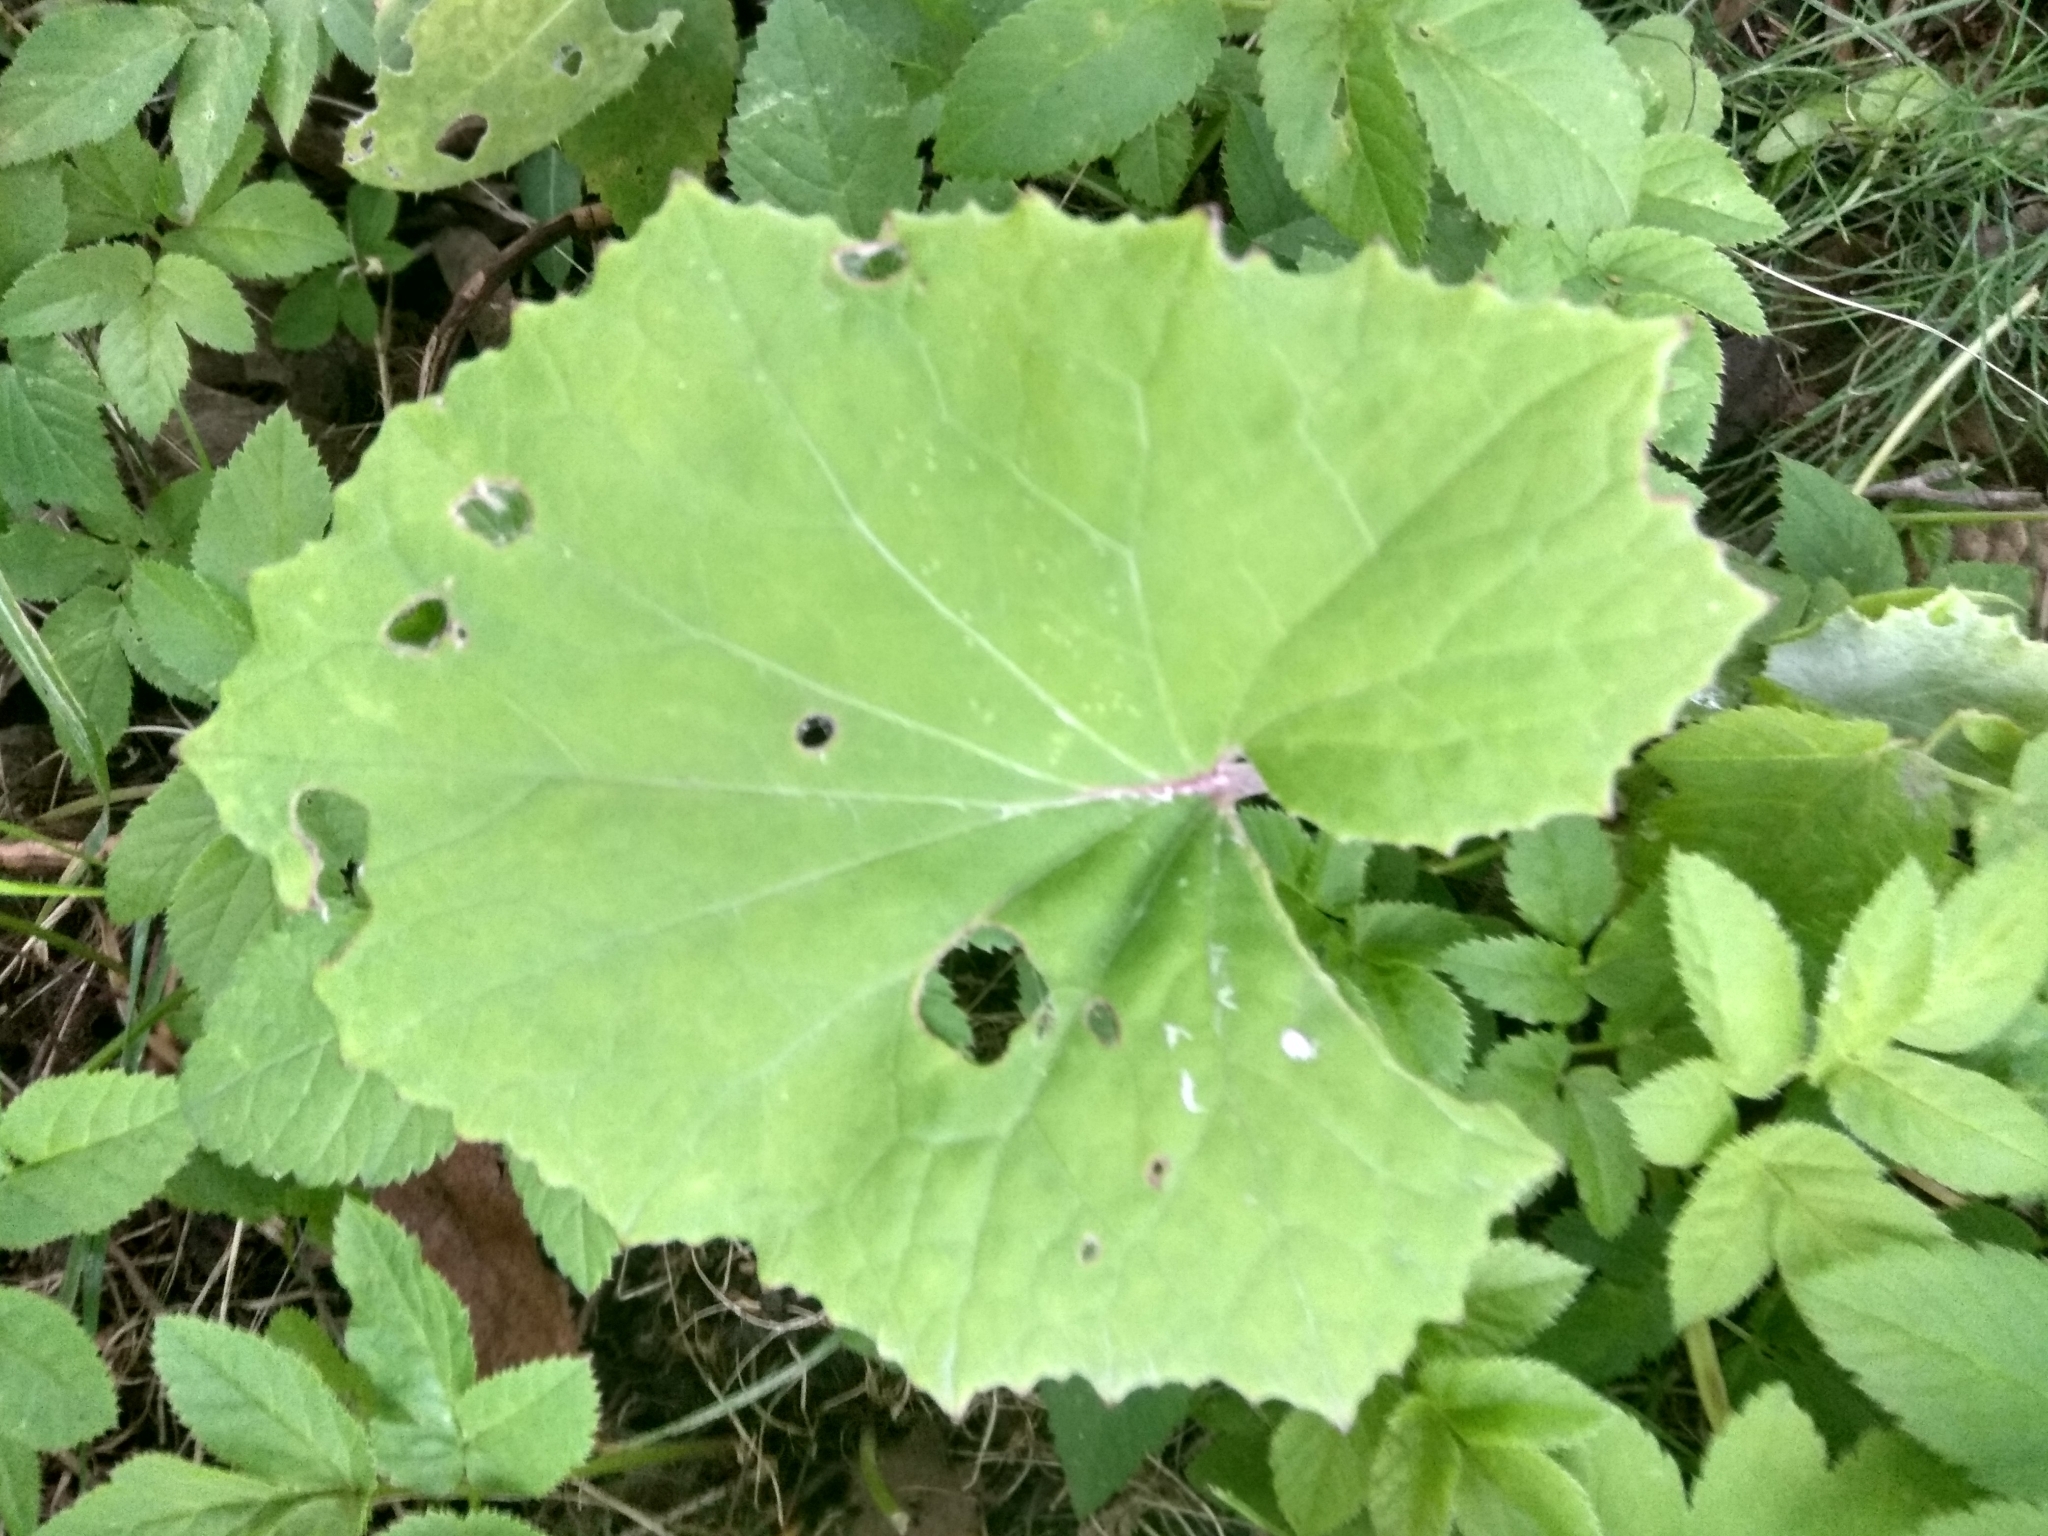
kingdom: Plantae
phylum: Tracheophyta
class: Magnoliopsida
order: Asterales
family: Asteraceae
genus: Tussilago
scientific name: Tussilago farfara
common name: Coltsfoot
